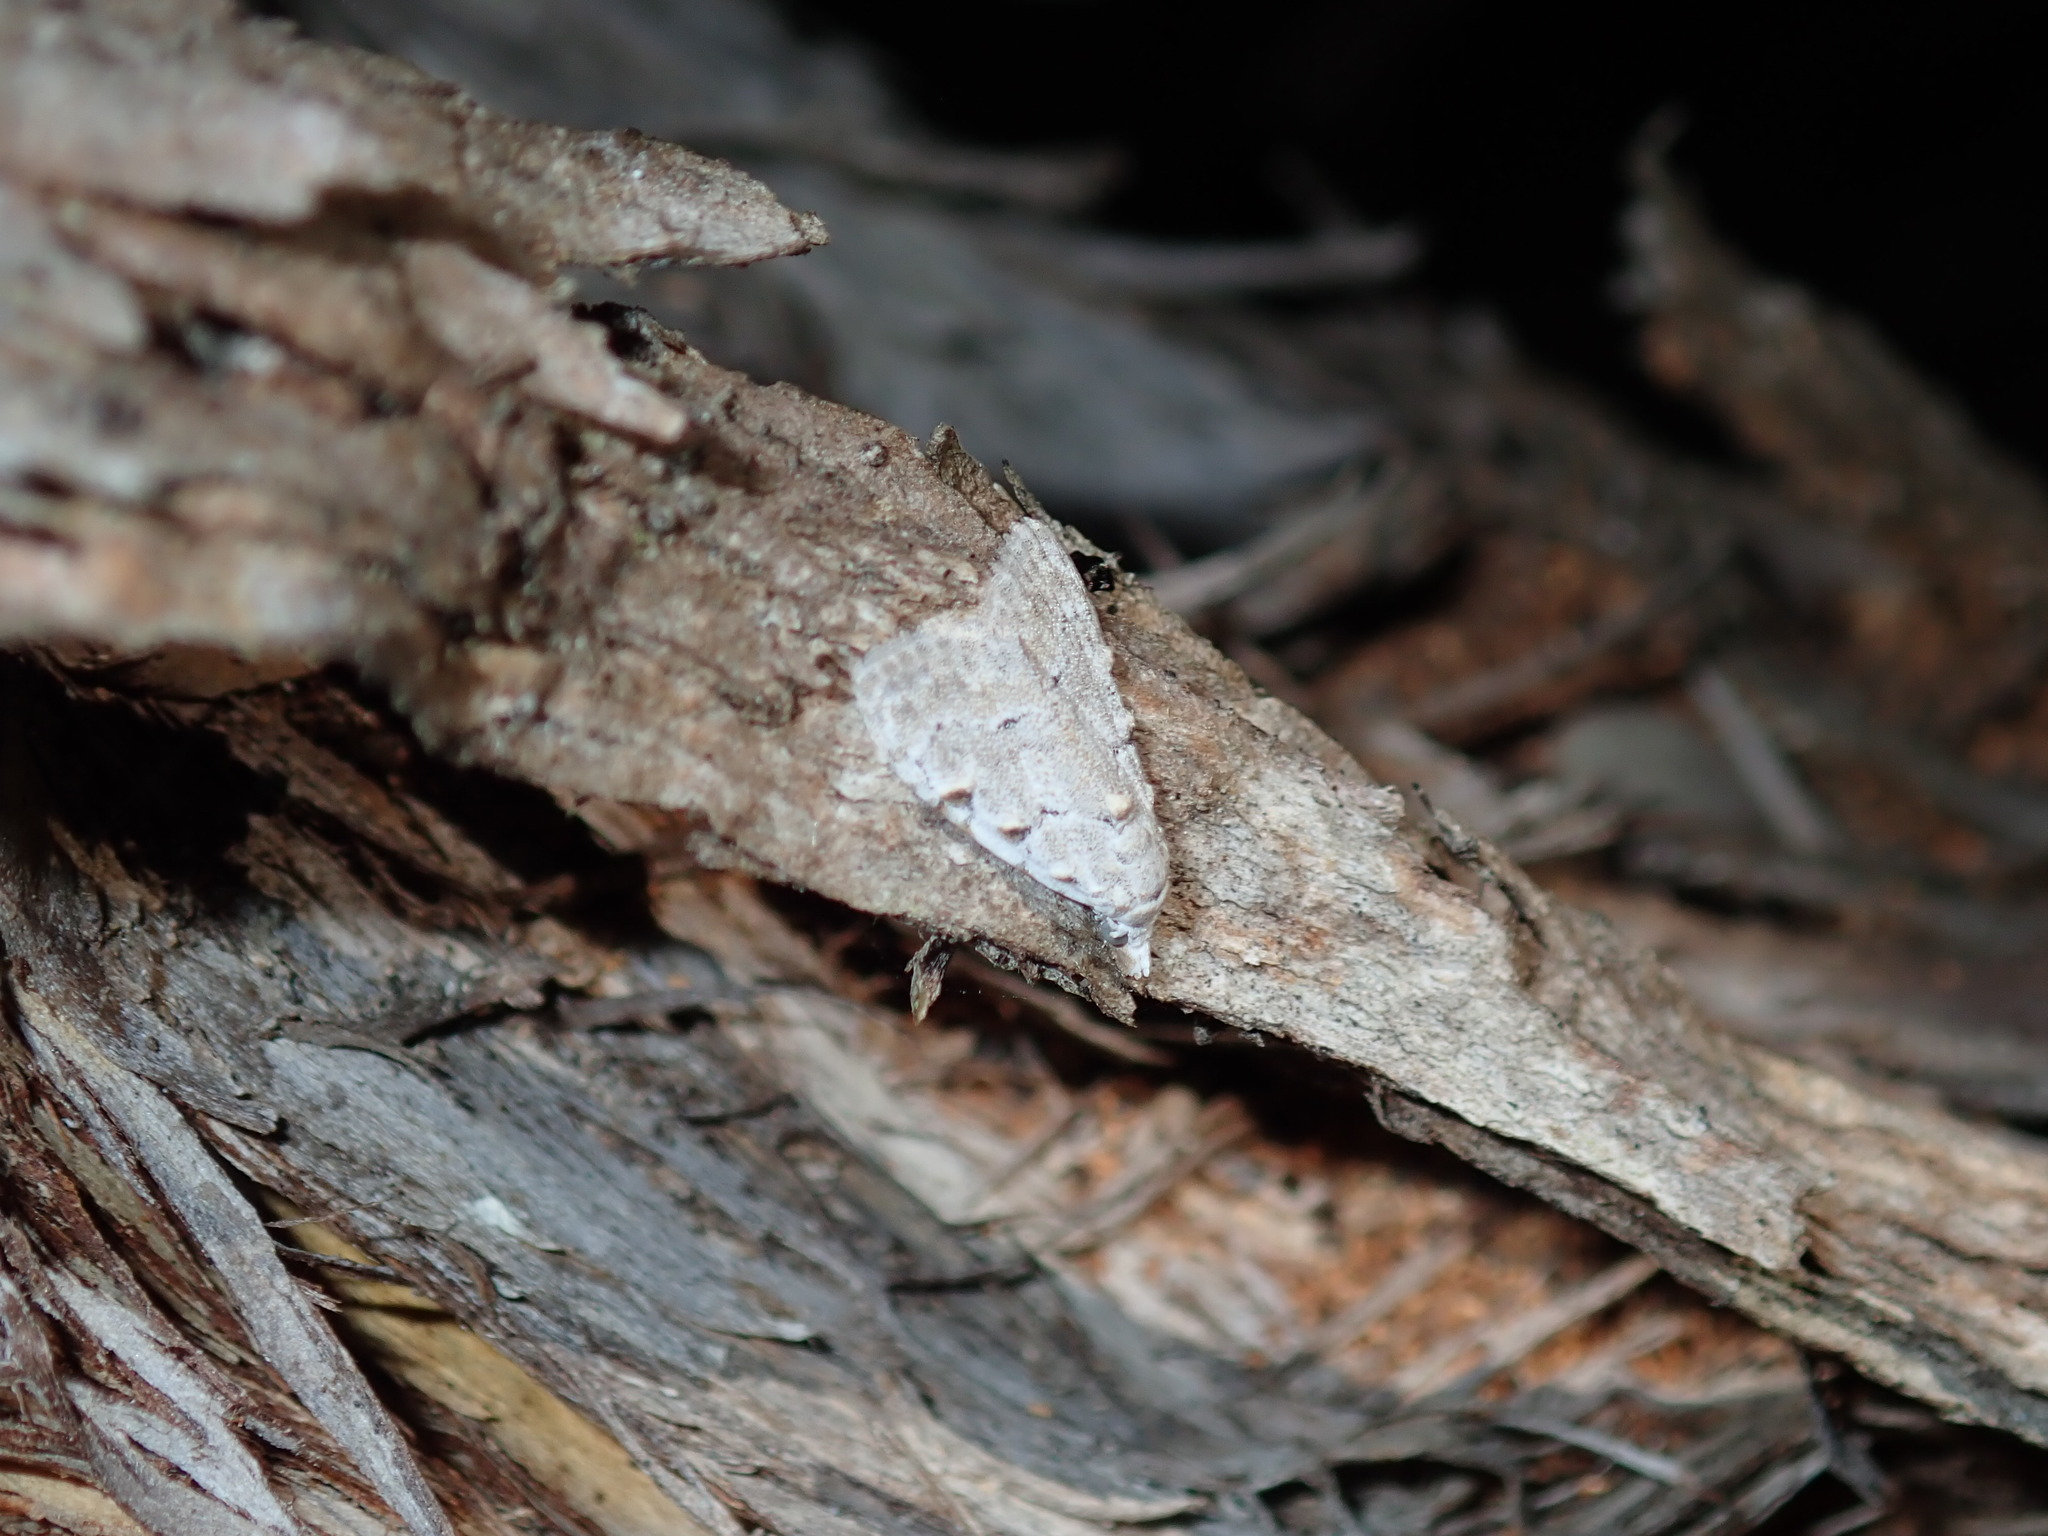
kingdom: Animalia
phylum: Arthropoda
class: Insecta
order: Lepidoptera
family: Nolidae
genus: Nola
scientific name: Nola argentea
